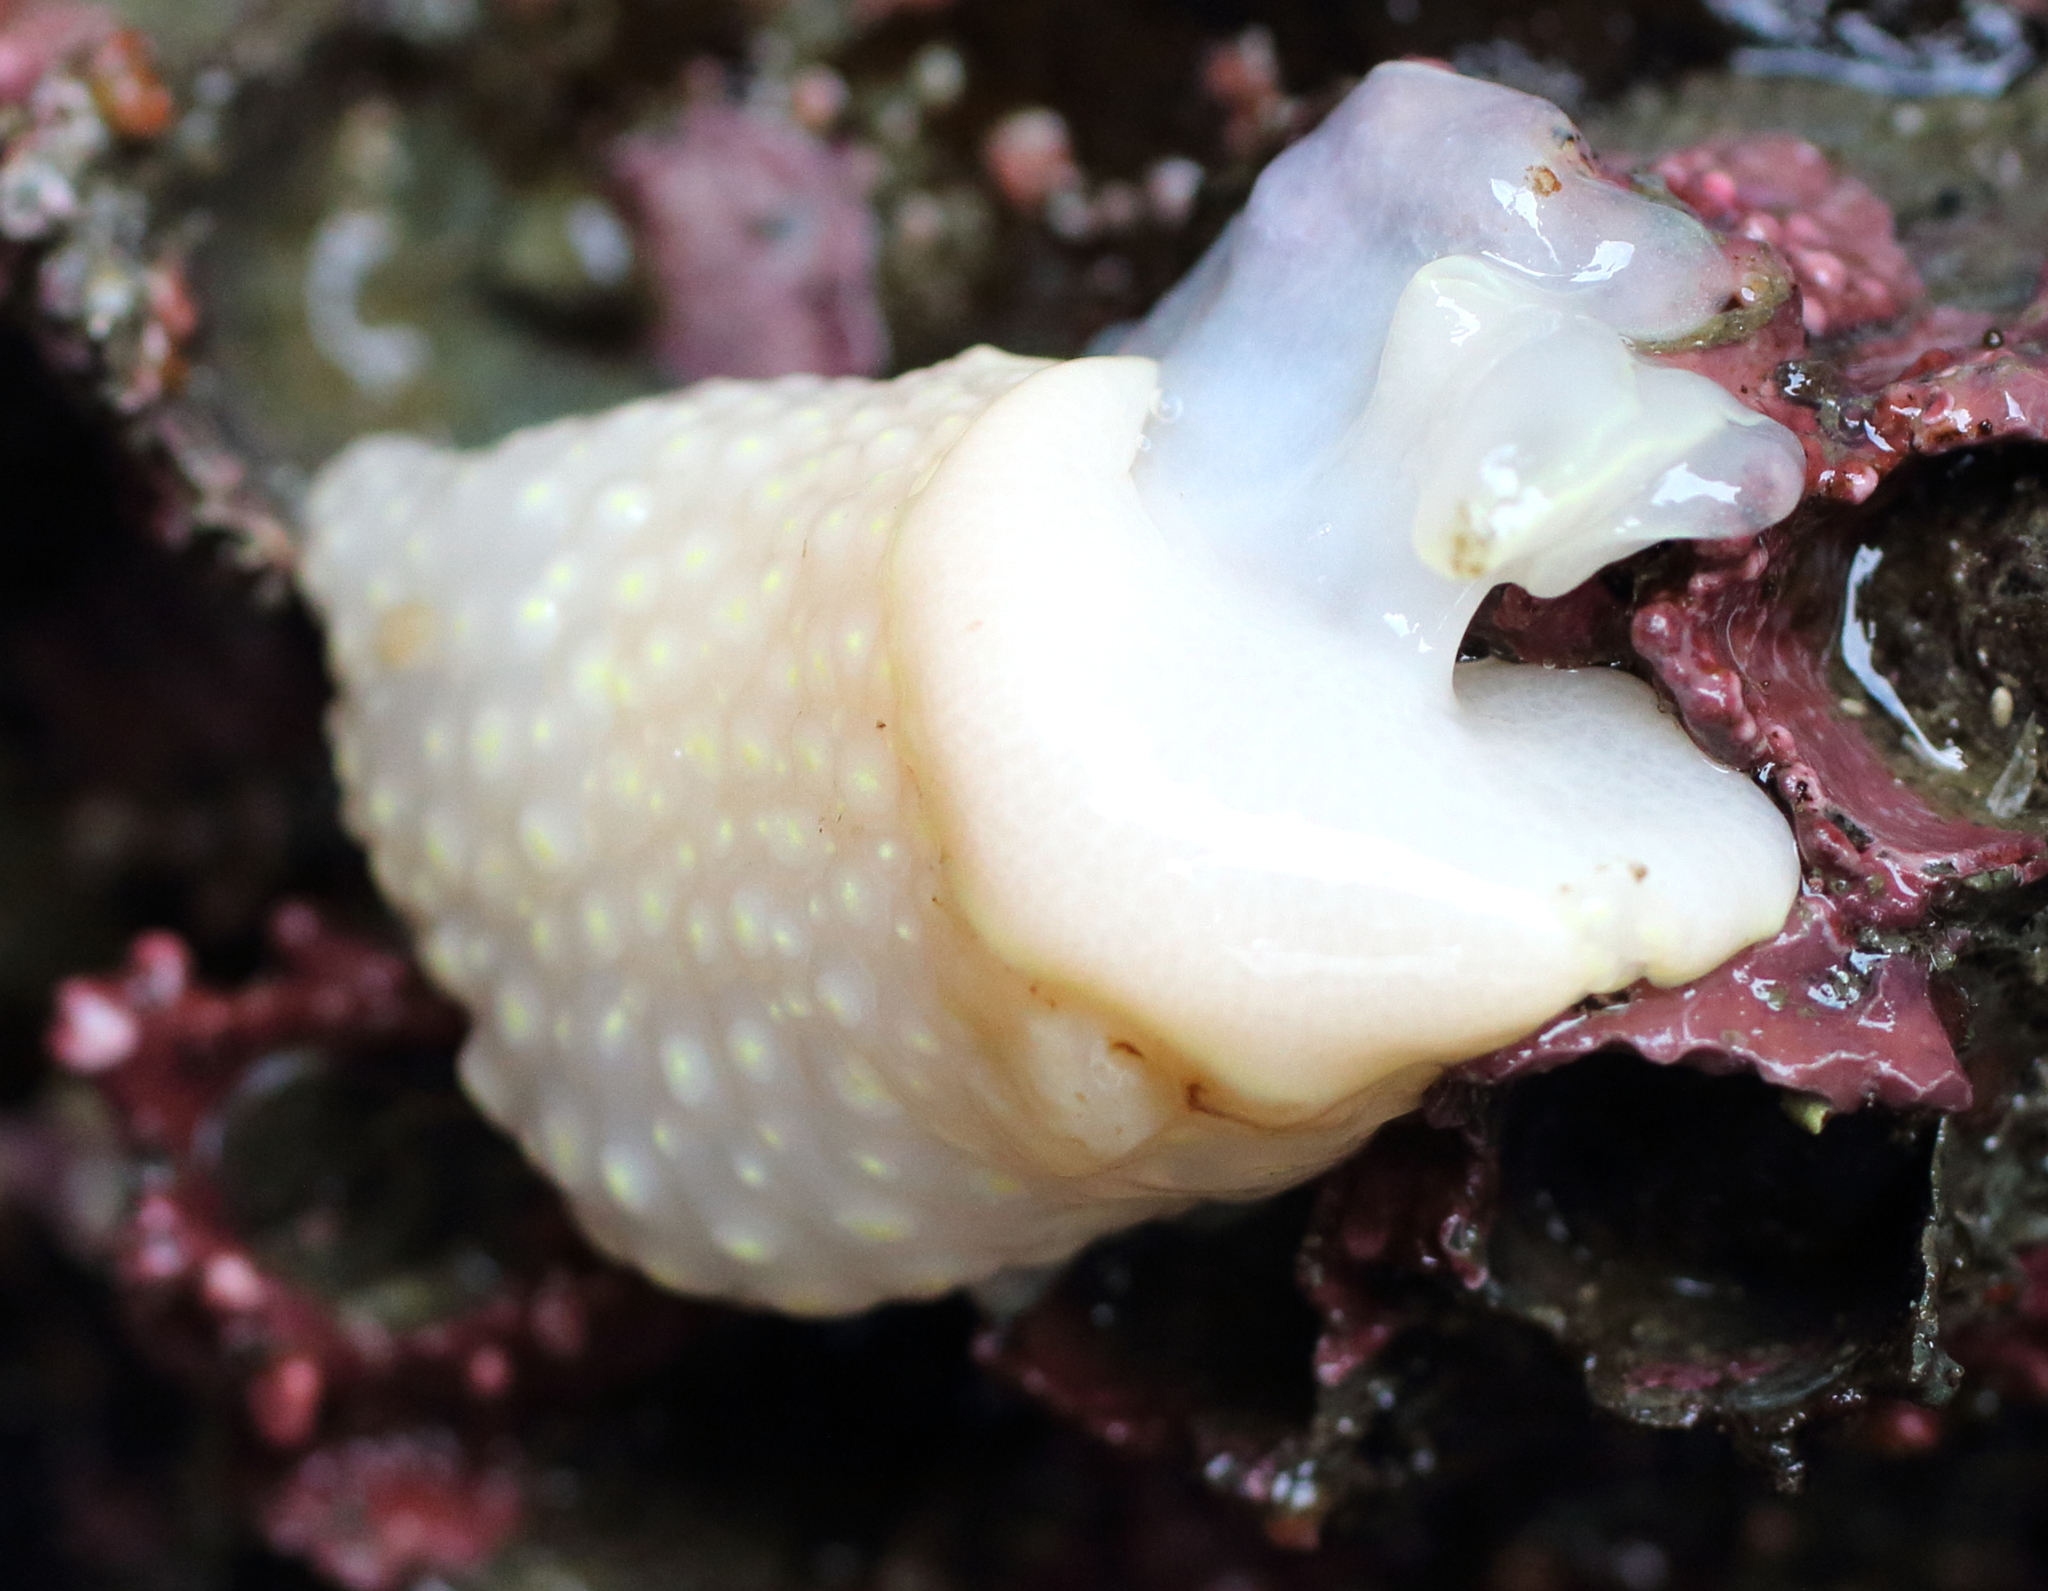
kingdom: Animalia
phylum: Mollusca
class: Gastropoda
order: Nudibranchia
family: Cadlinidae
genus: Cadlina
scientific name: Cadlina luteomarginata
